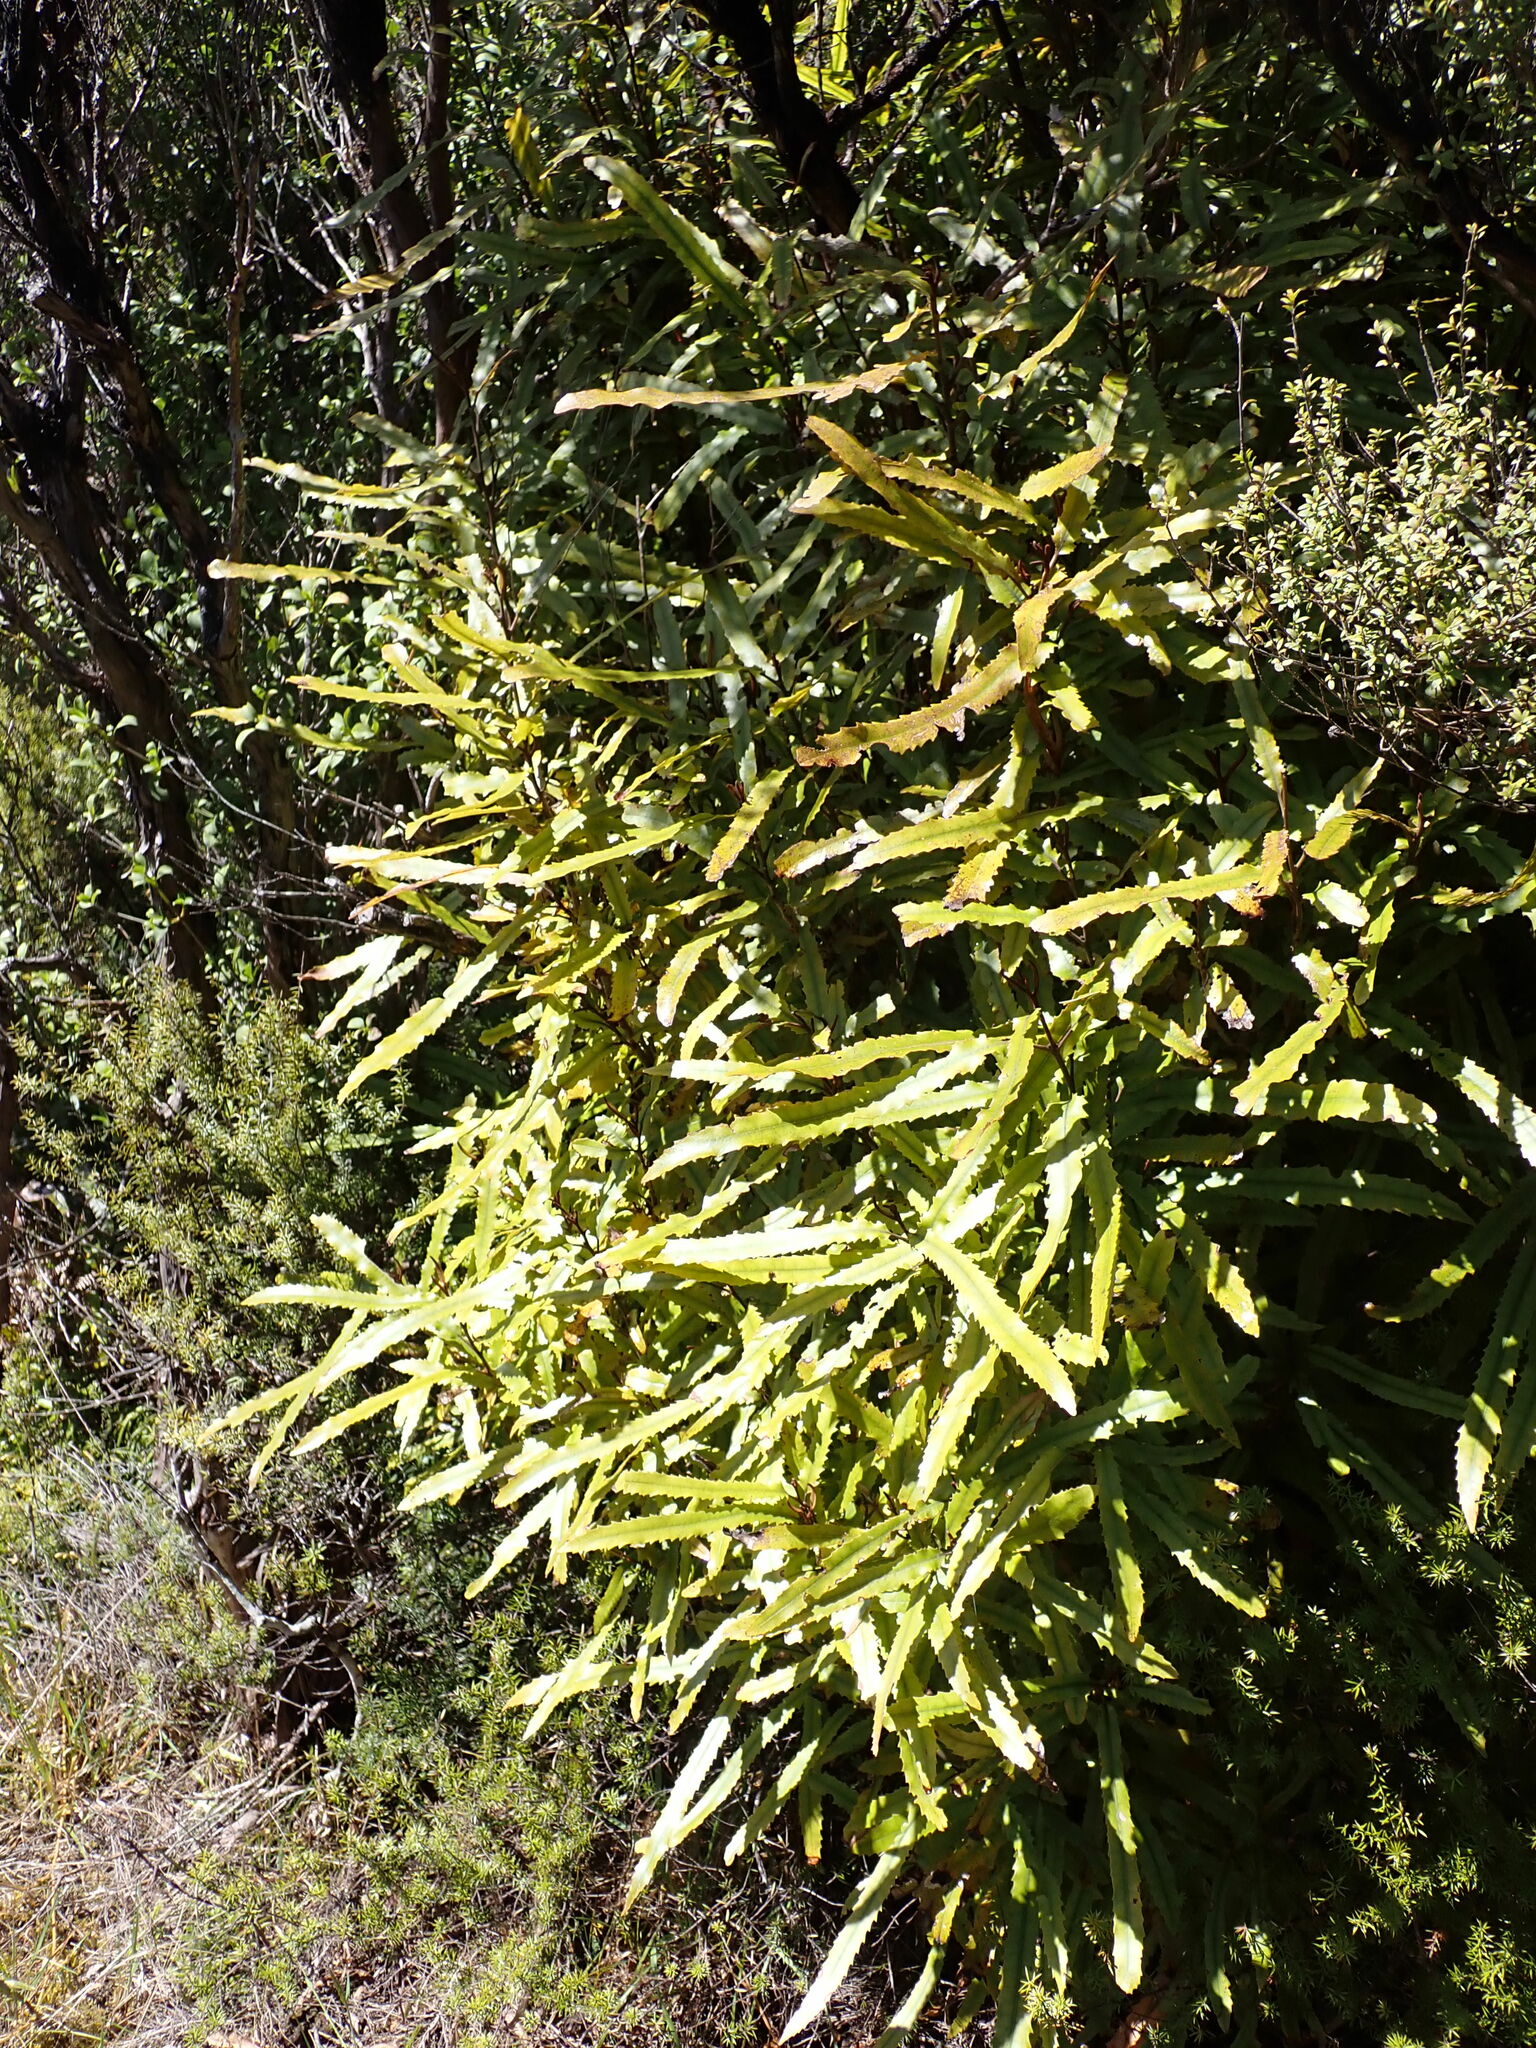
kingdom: Plantae
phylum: Tracheophyta
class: Magnoliopsida
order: Proteales
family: Proteaceae
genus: Knightia
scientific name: Knightia excelsa
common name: New zealand-honeysuckle
